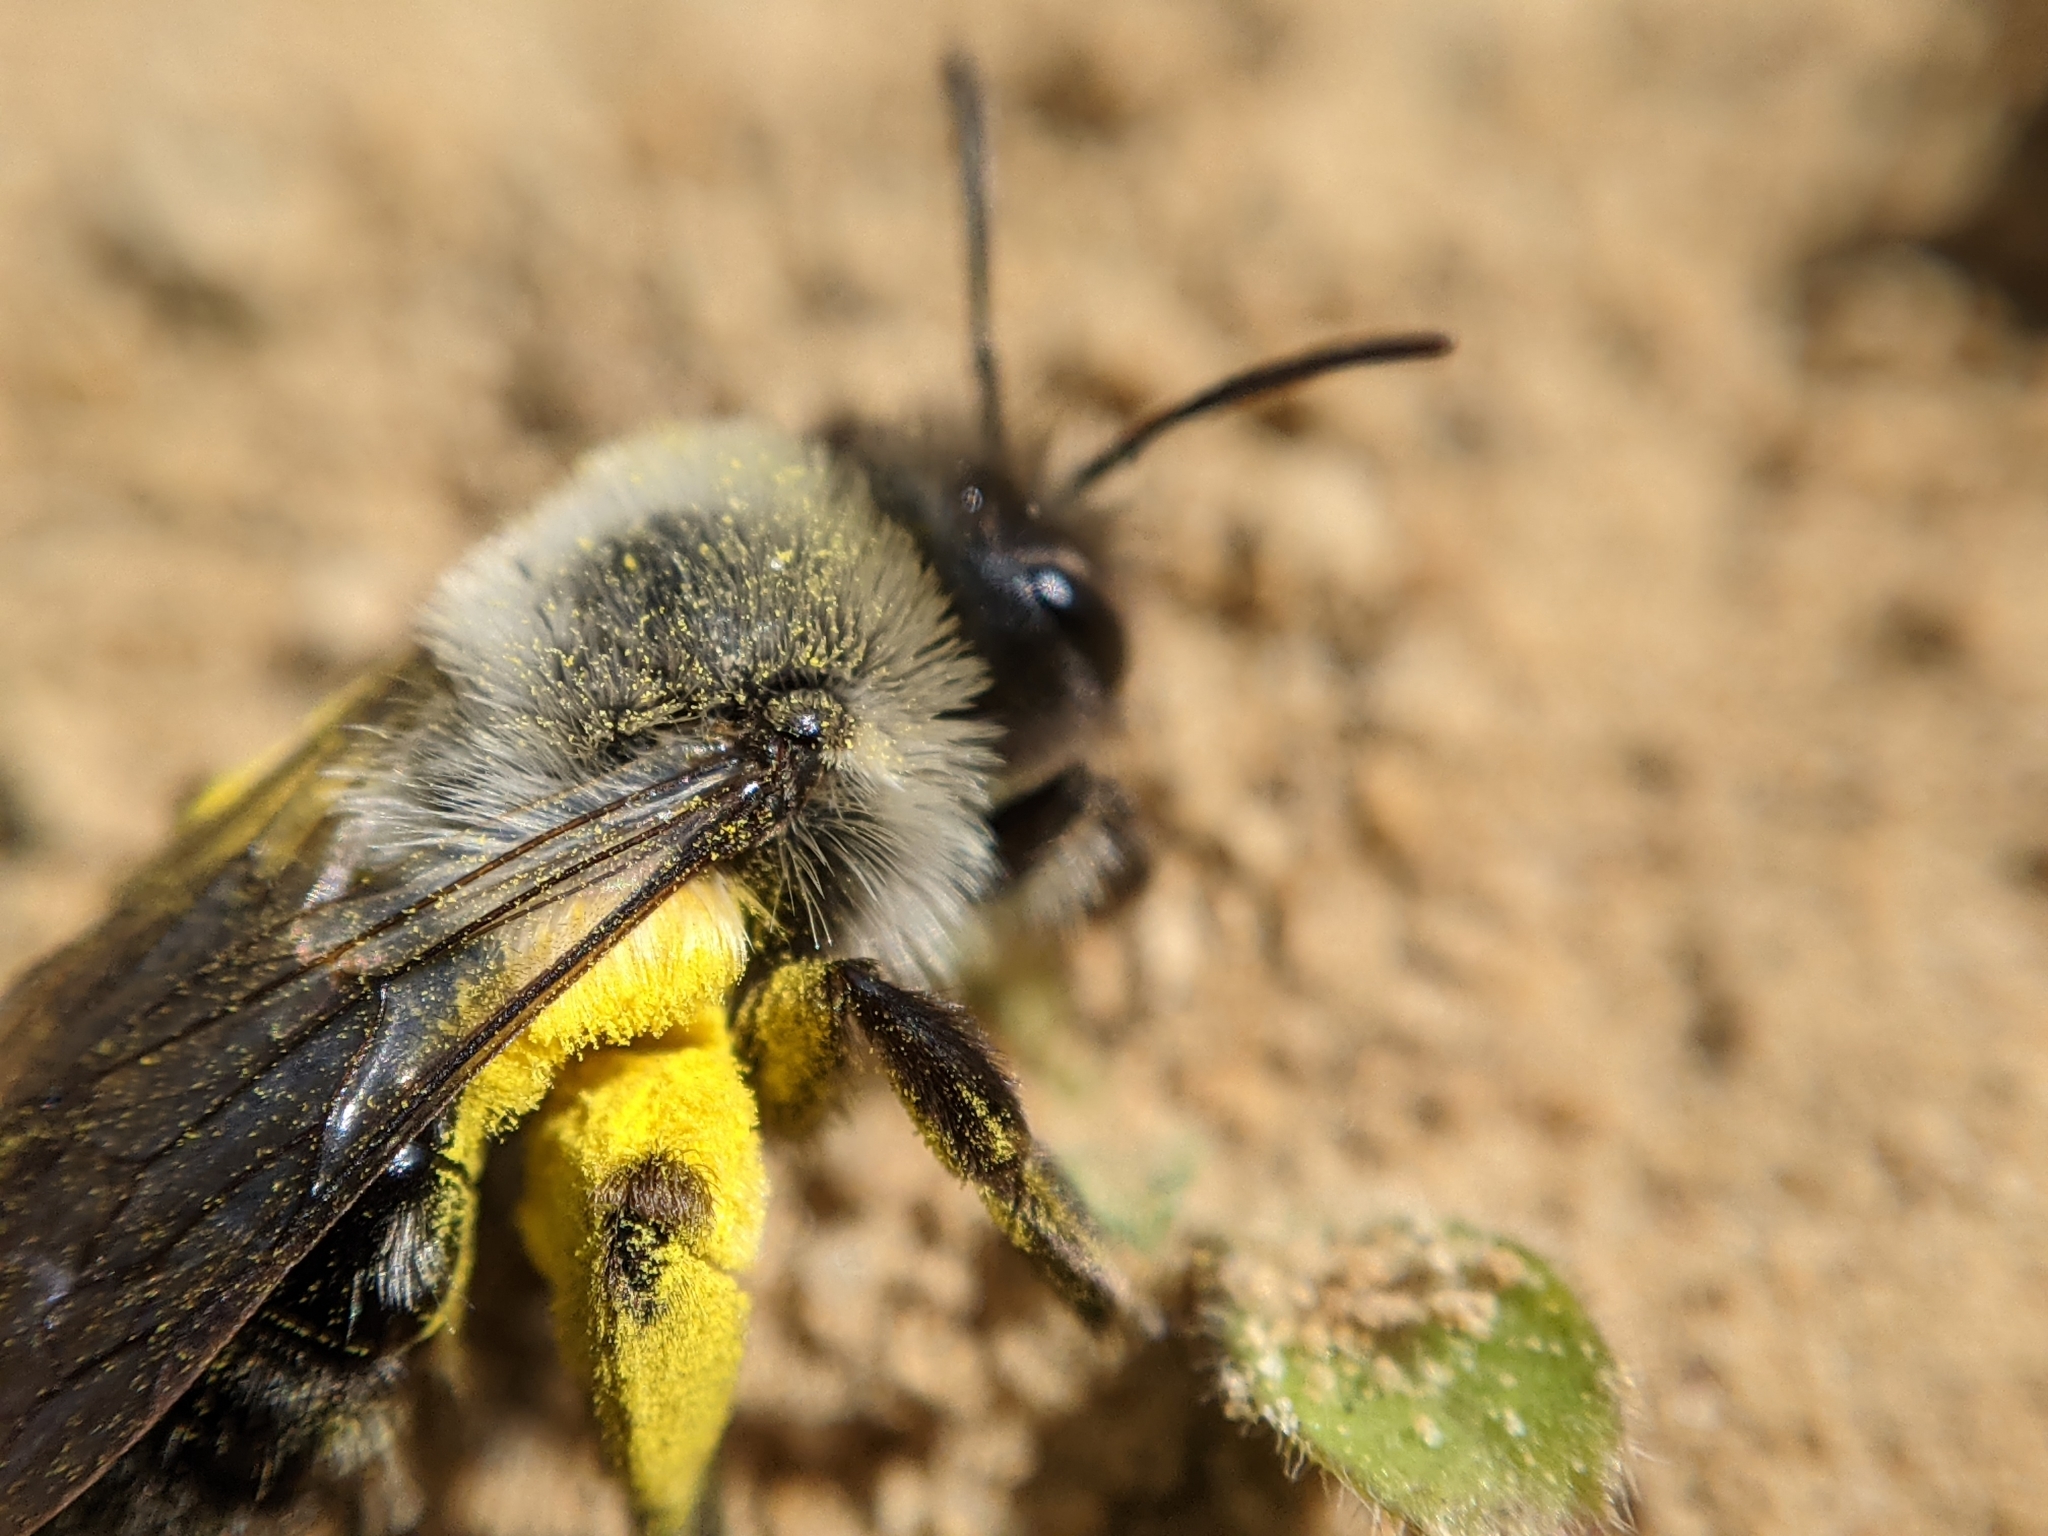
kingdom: Animalia
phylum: Arthropoda
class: Insecta
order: Hymenoptera
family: Andrenidae
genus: Andrena
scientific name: Andrena vaga
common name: Grey-backed mining bee
